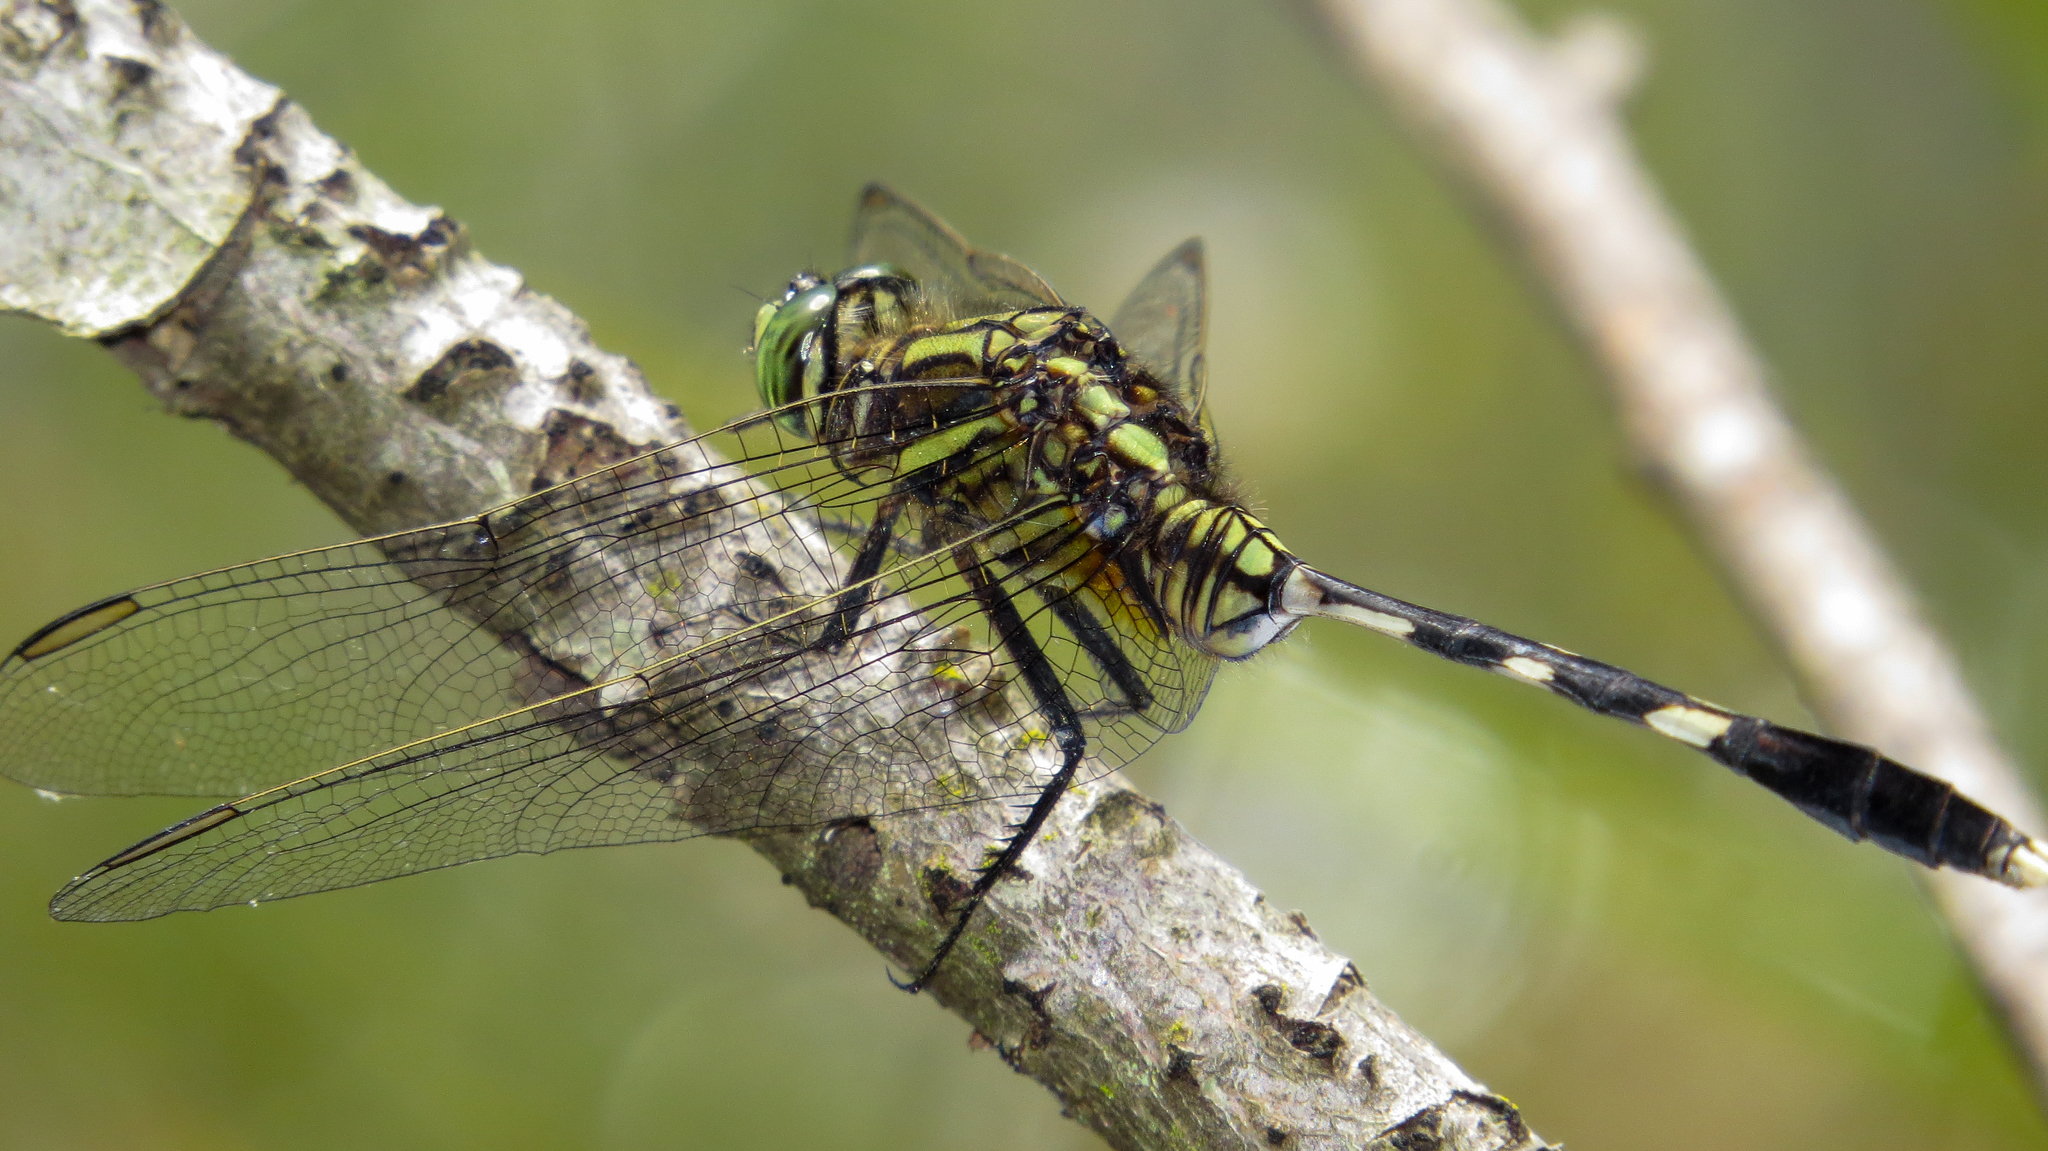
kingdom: Animalia
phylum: Arthropoda
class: Insecta
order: Odonata
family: Libellulidae
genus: Orthetrum
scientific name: Orthetrum sabina
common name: Slender skimmer
